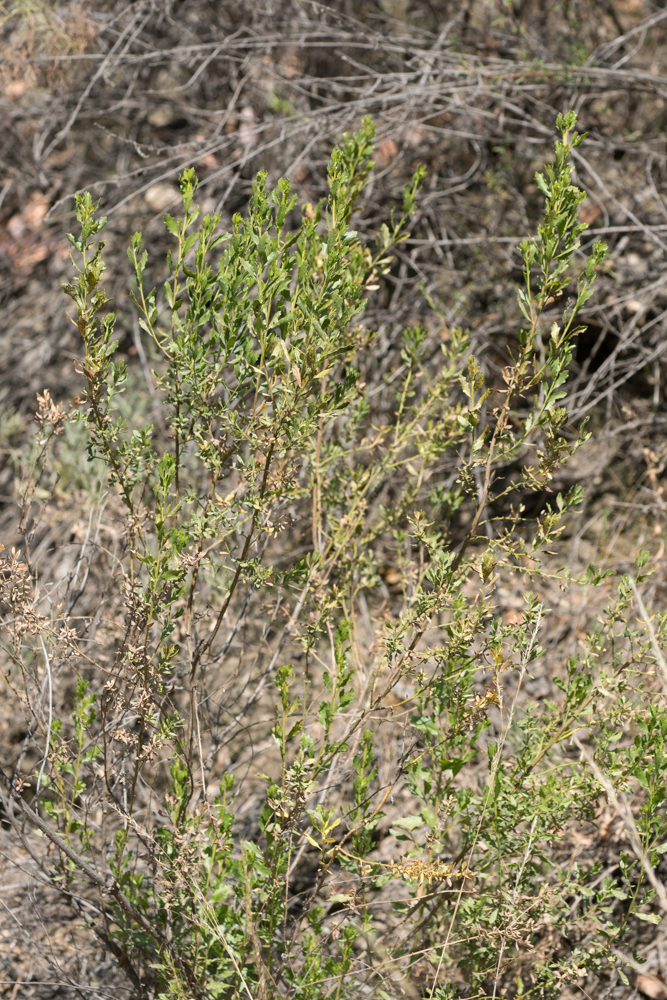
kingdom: Plantae
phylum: Tracheophyta
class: Magnoliopsida
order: Asterales
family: Asteraceae
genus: Baccharis
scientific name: Baccharis pilularis
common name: Coyotebrush
